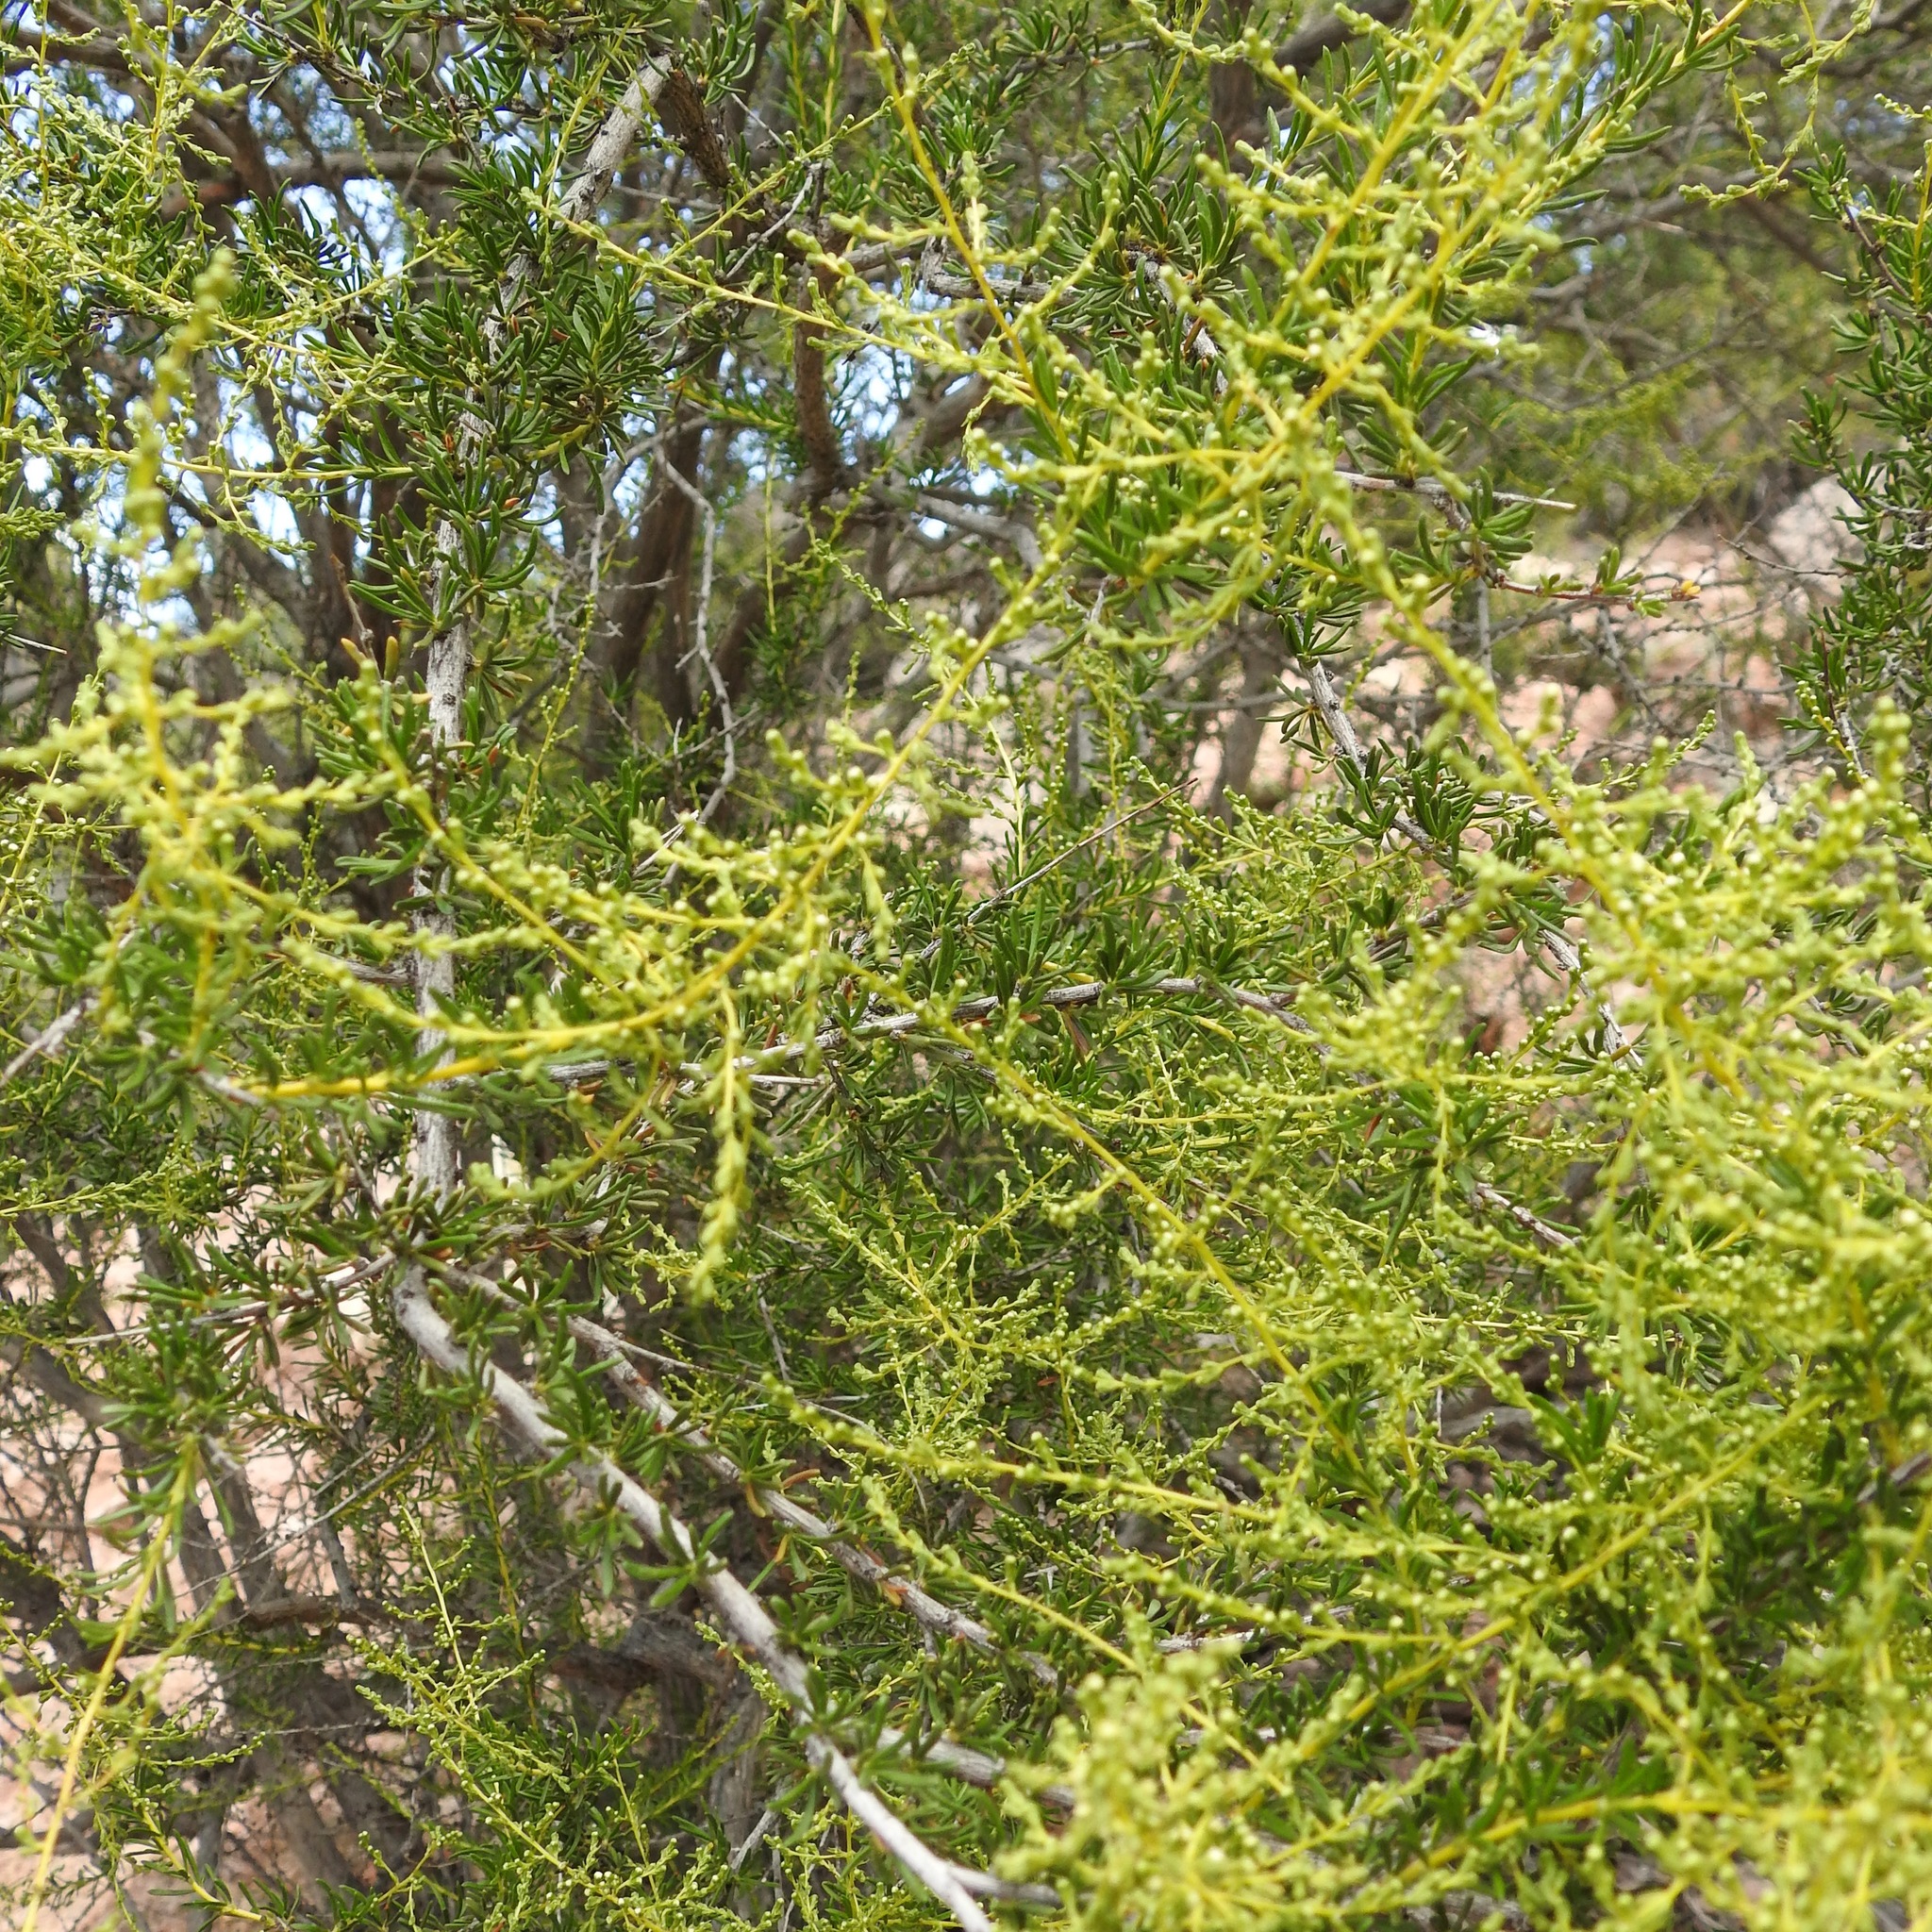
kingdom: Plantae
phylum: Tracheophyta
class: Magnoliopsida
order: Rosales
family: Rosaceae
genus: Adenostoma
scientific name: Adenostoma fasciculatum
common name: Chamise
